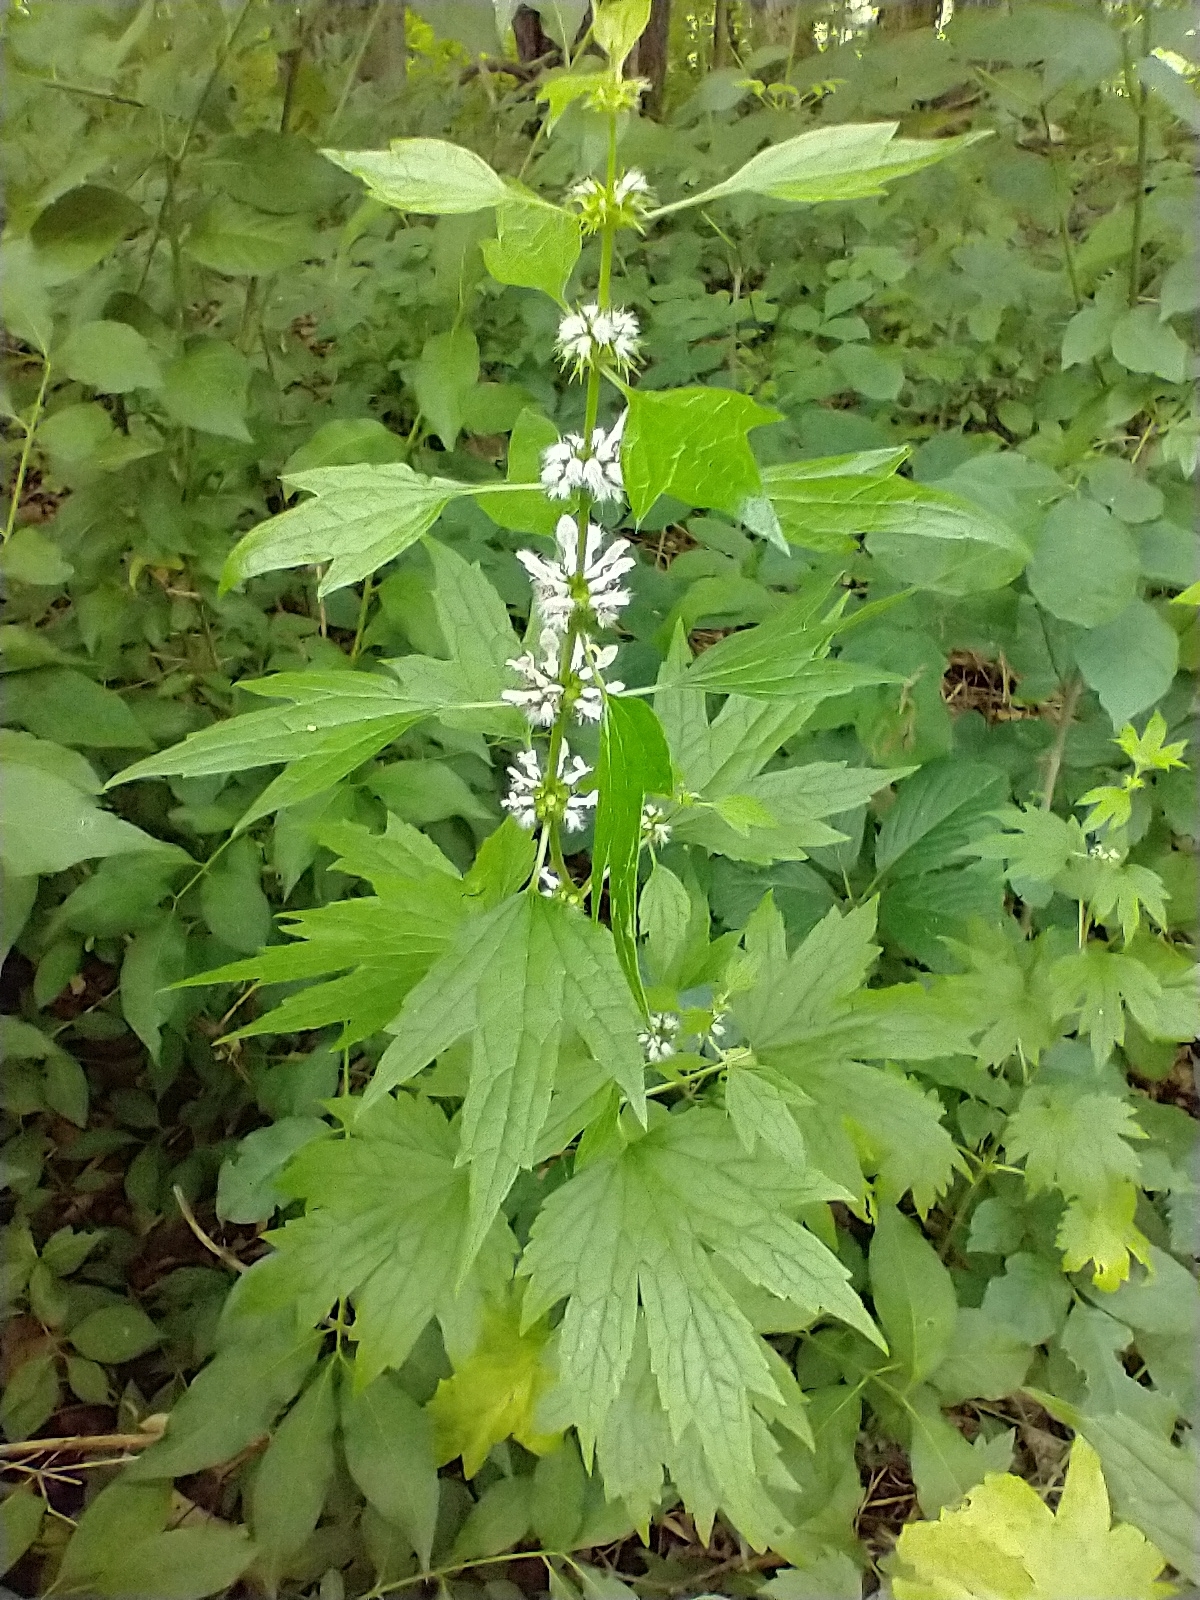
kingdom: Plantae
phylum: Tracheophyta
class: Magnoliopsida
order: Lamiales
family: Lamiaceae
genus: Leonurus
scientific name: Leonurus cardiaca
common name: Motherwort
